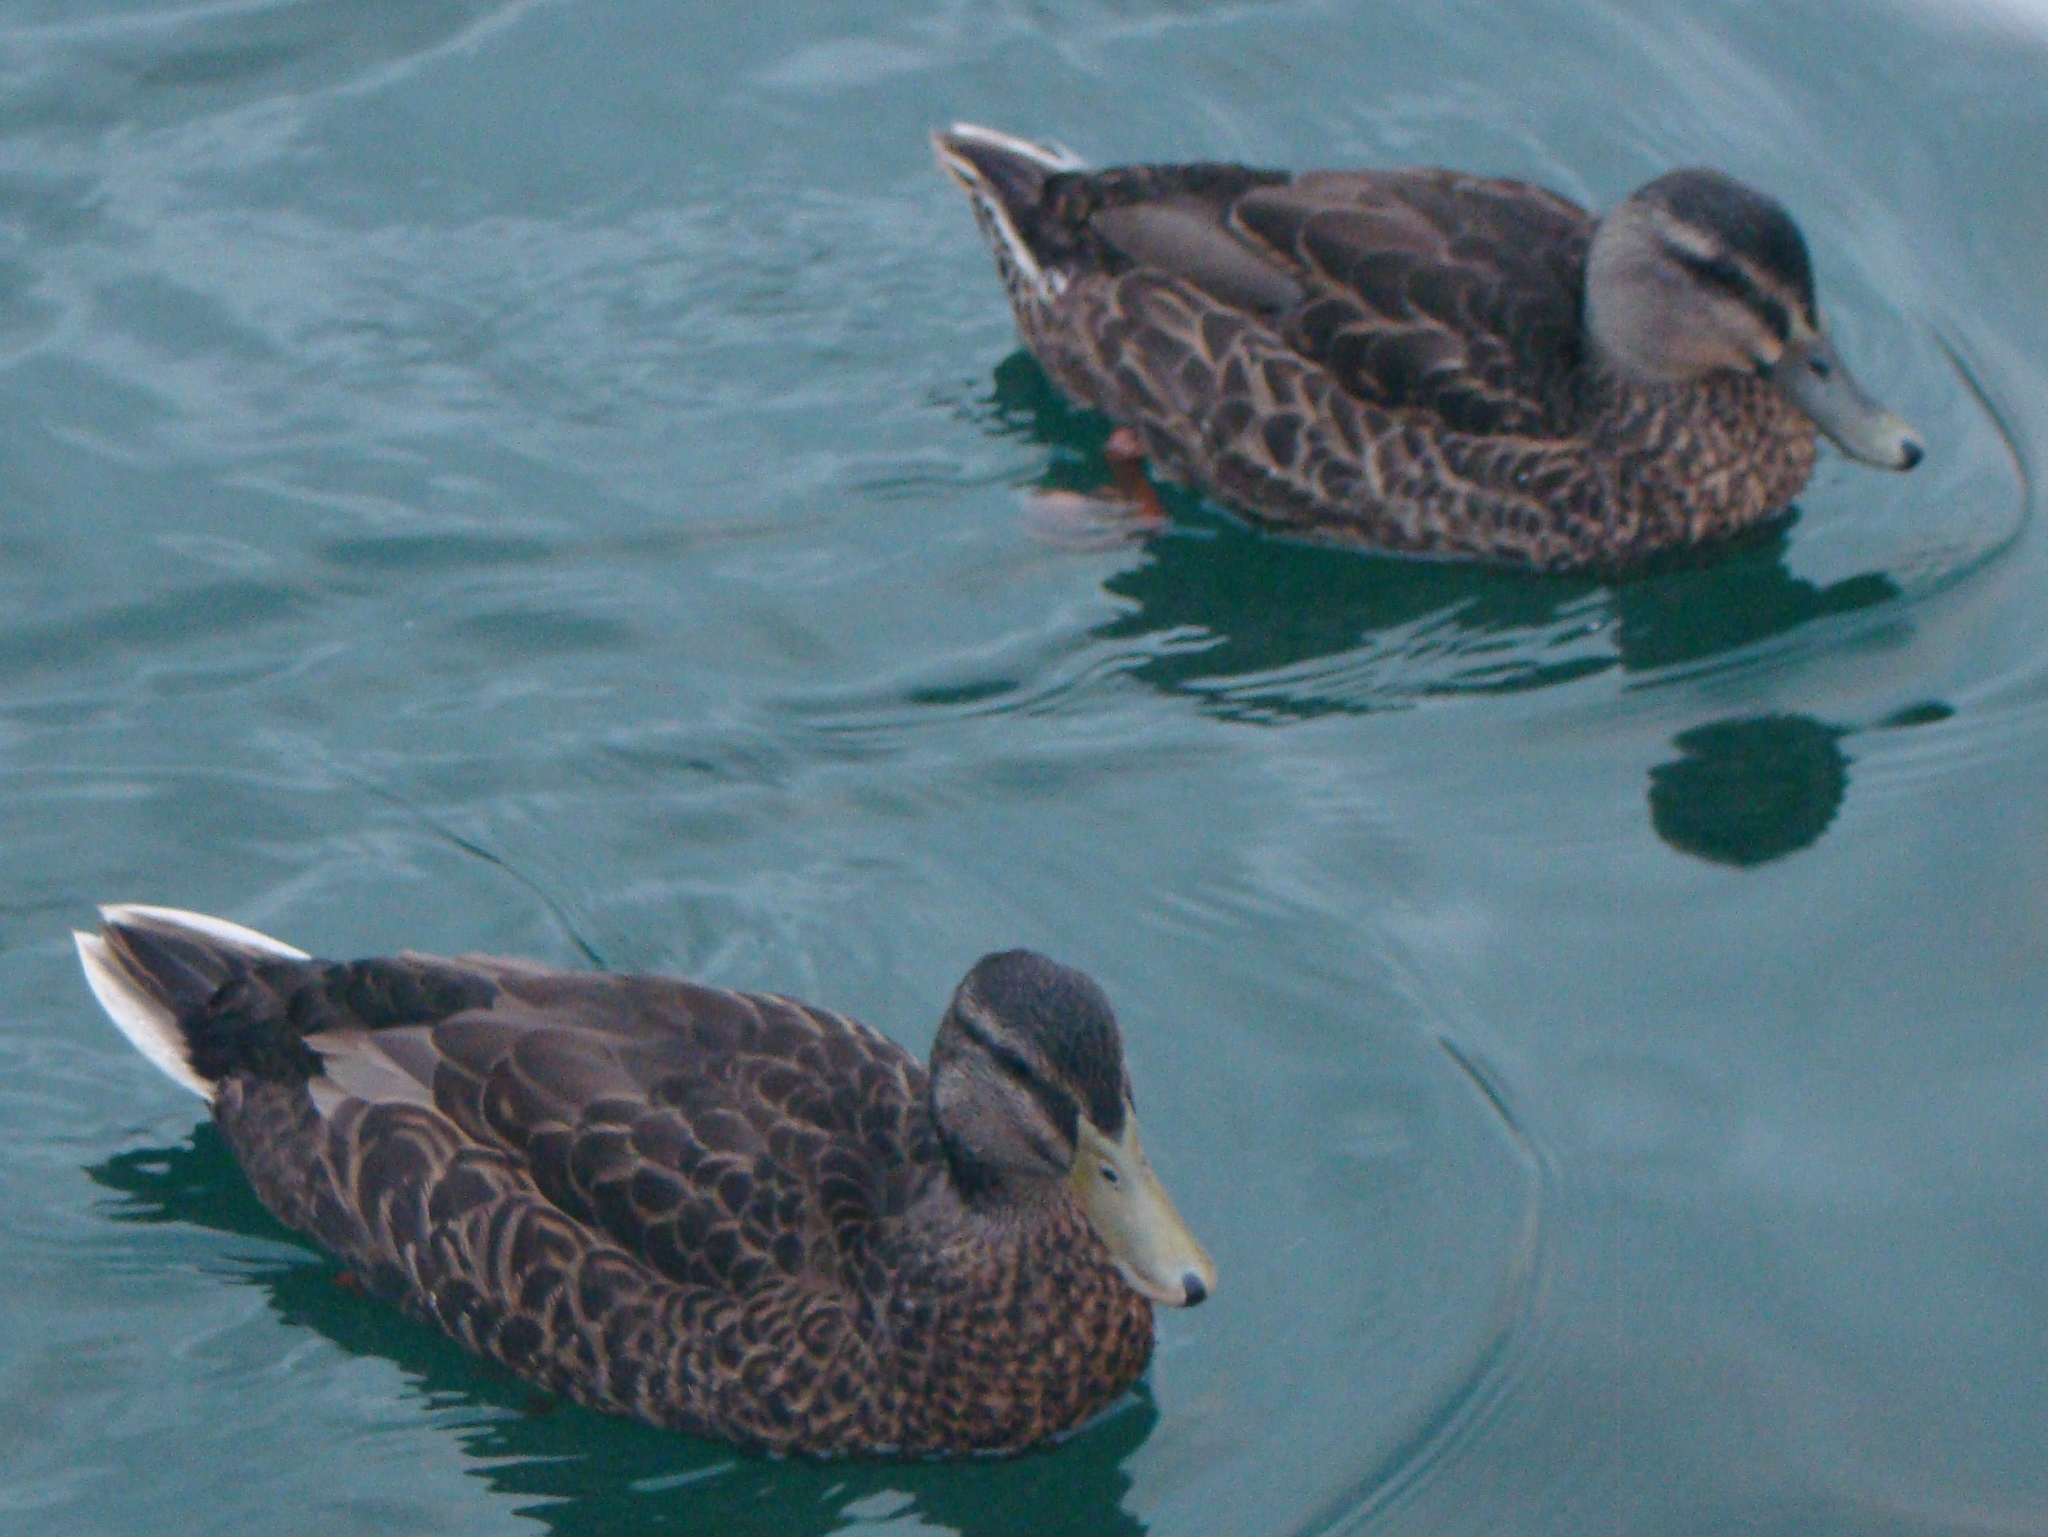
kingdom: Animalia
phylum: Chordata
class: Aves
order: Anseriformes
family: Anatidae
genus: Anas
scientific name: Anas
